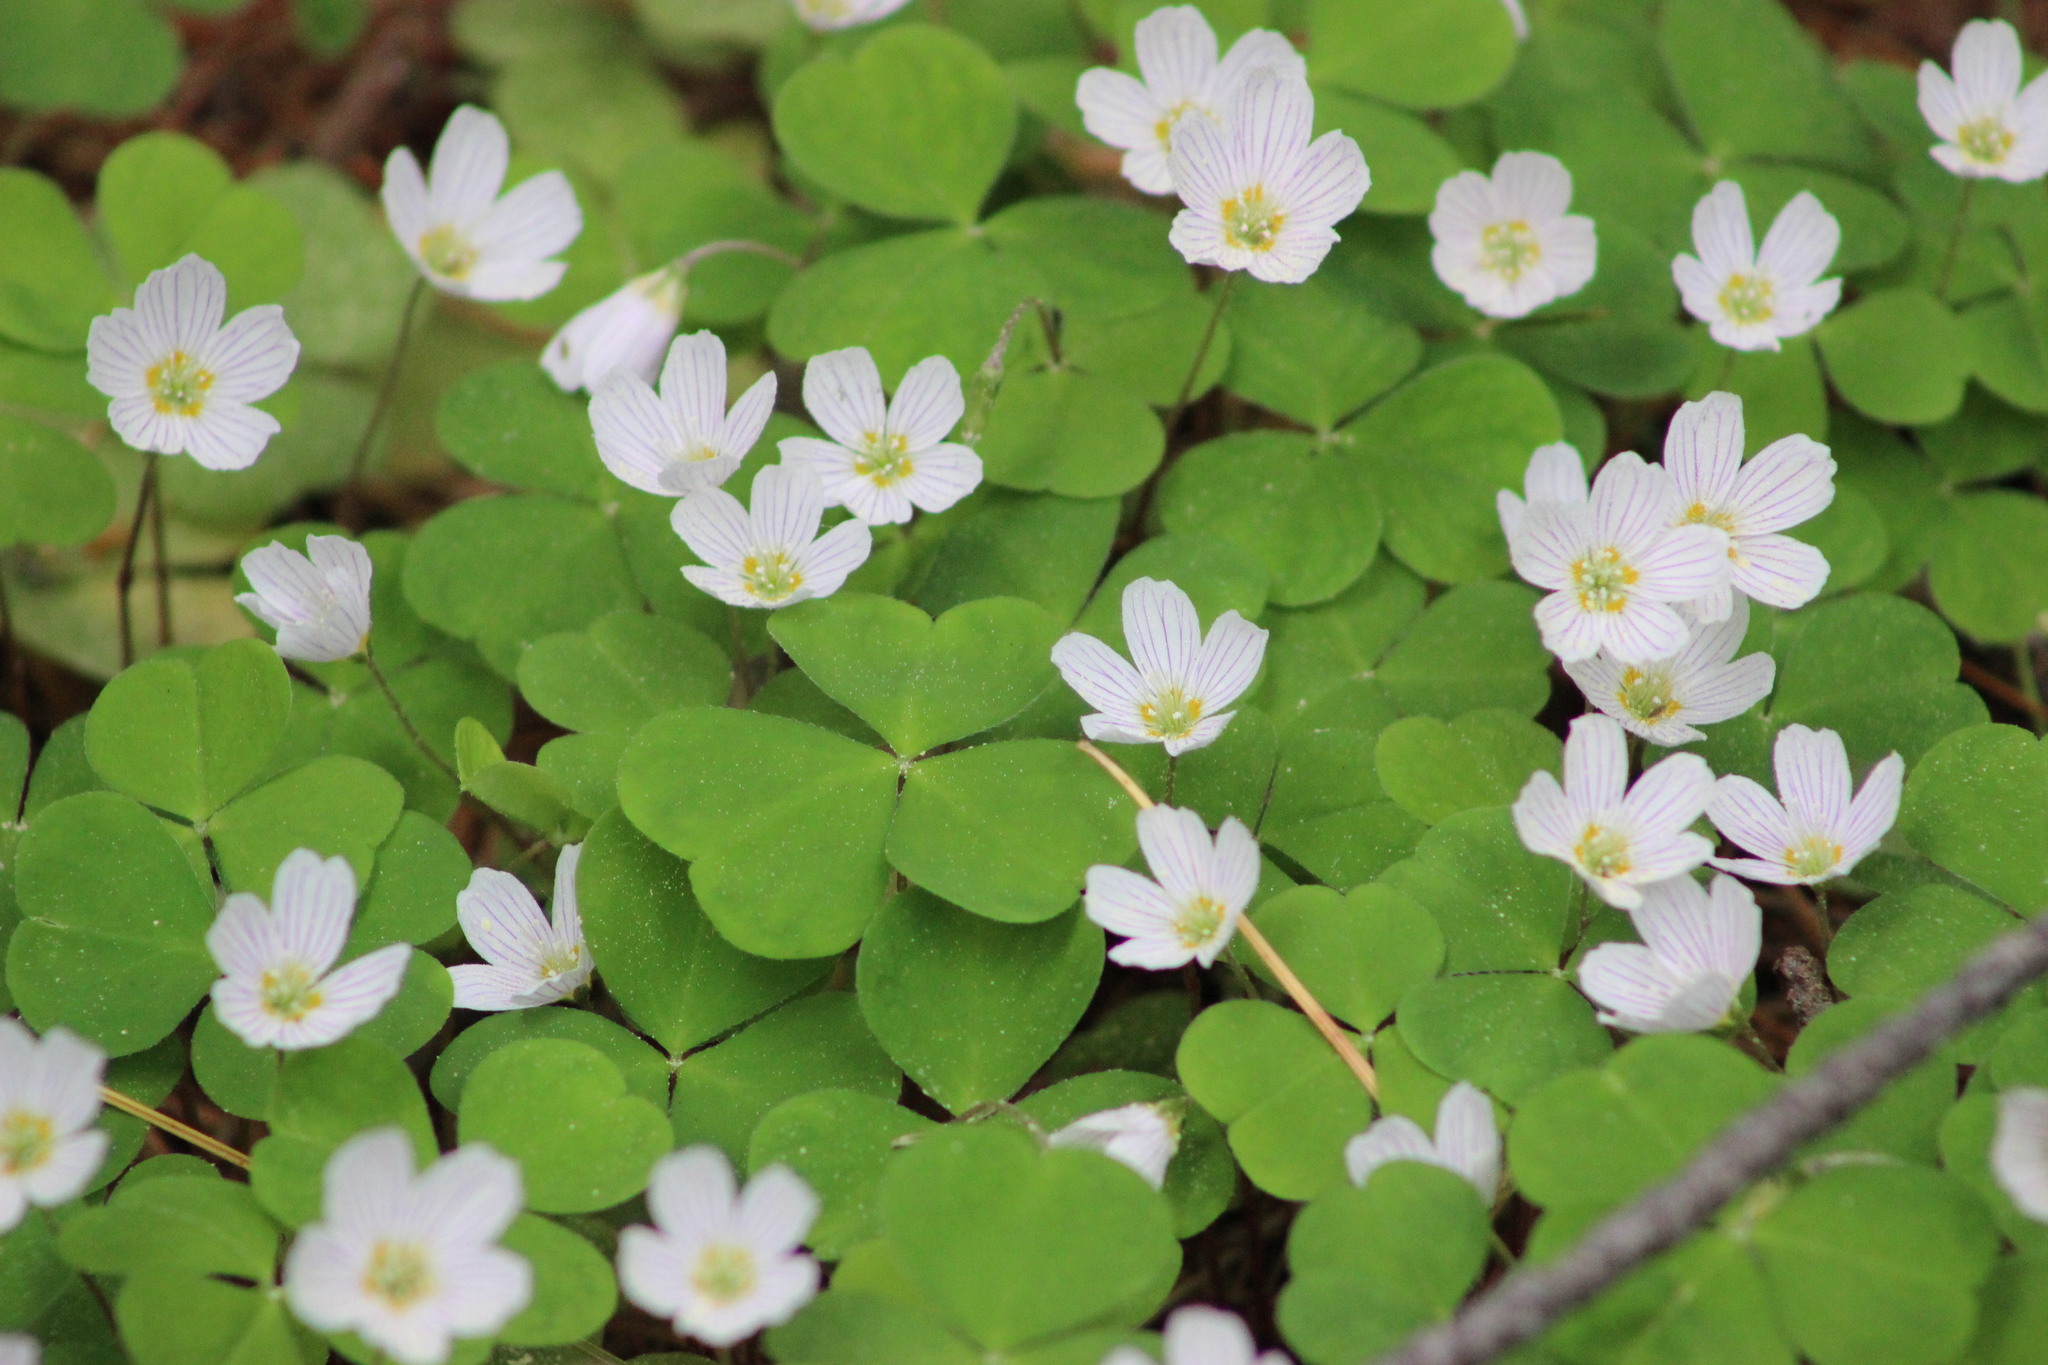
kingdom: Plantae
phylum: Tracheophyta
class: Magnoliopsida
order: Oxalidales
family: Oxalidaceae
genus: Oxalis
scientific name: Oxalis acetosella
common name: Wood-sorrel
